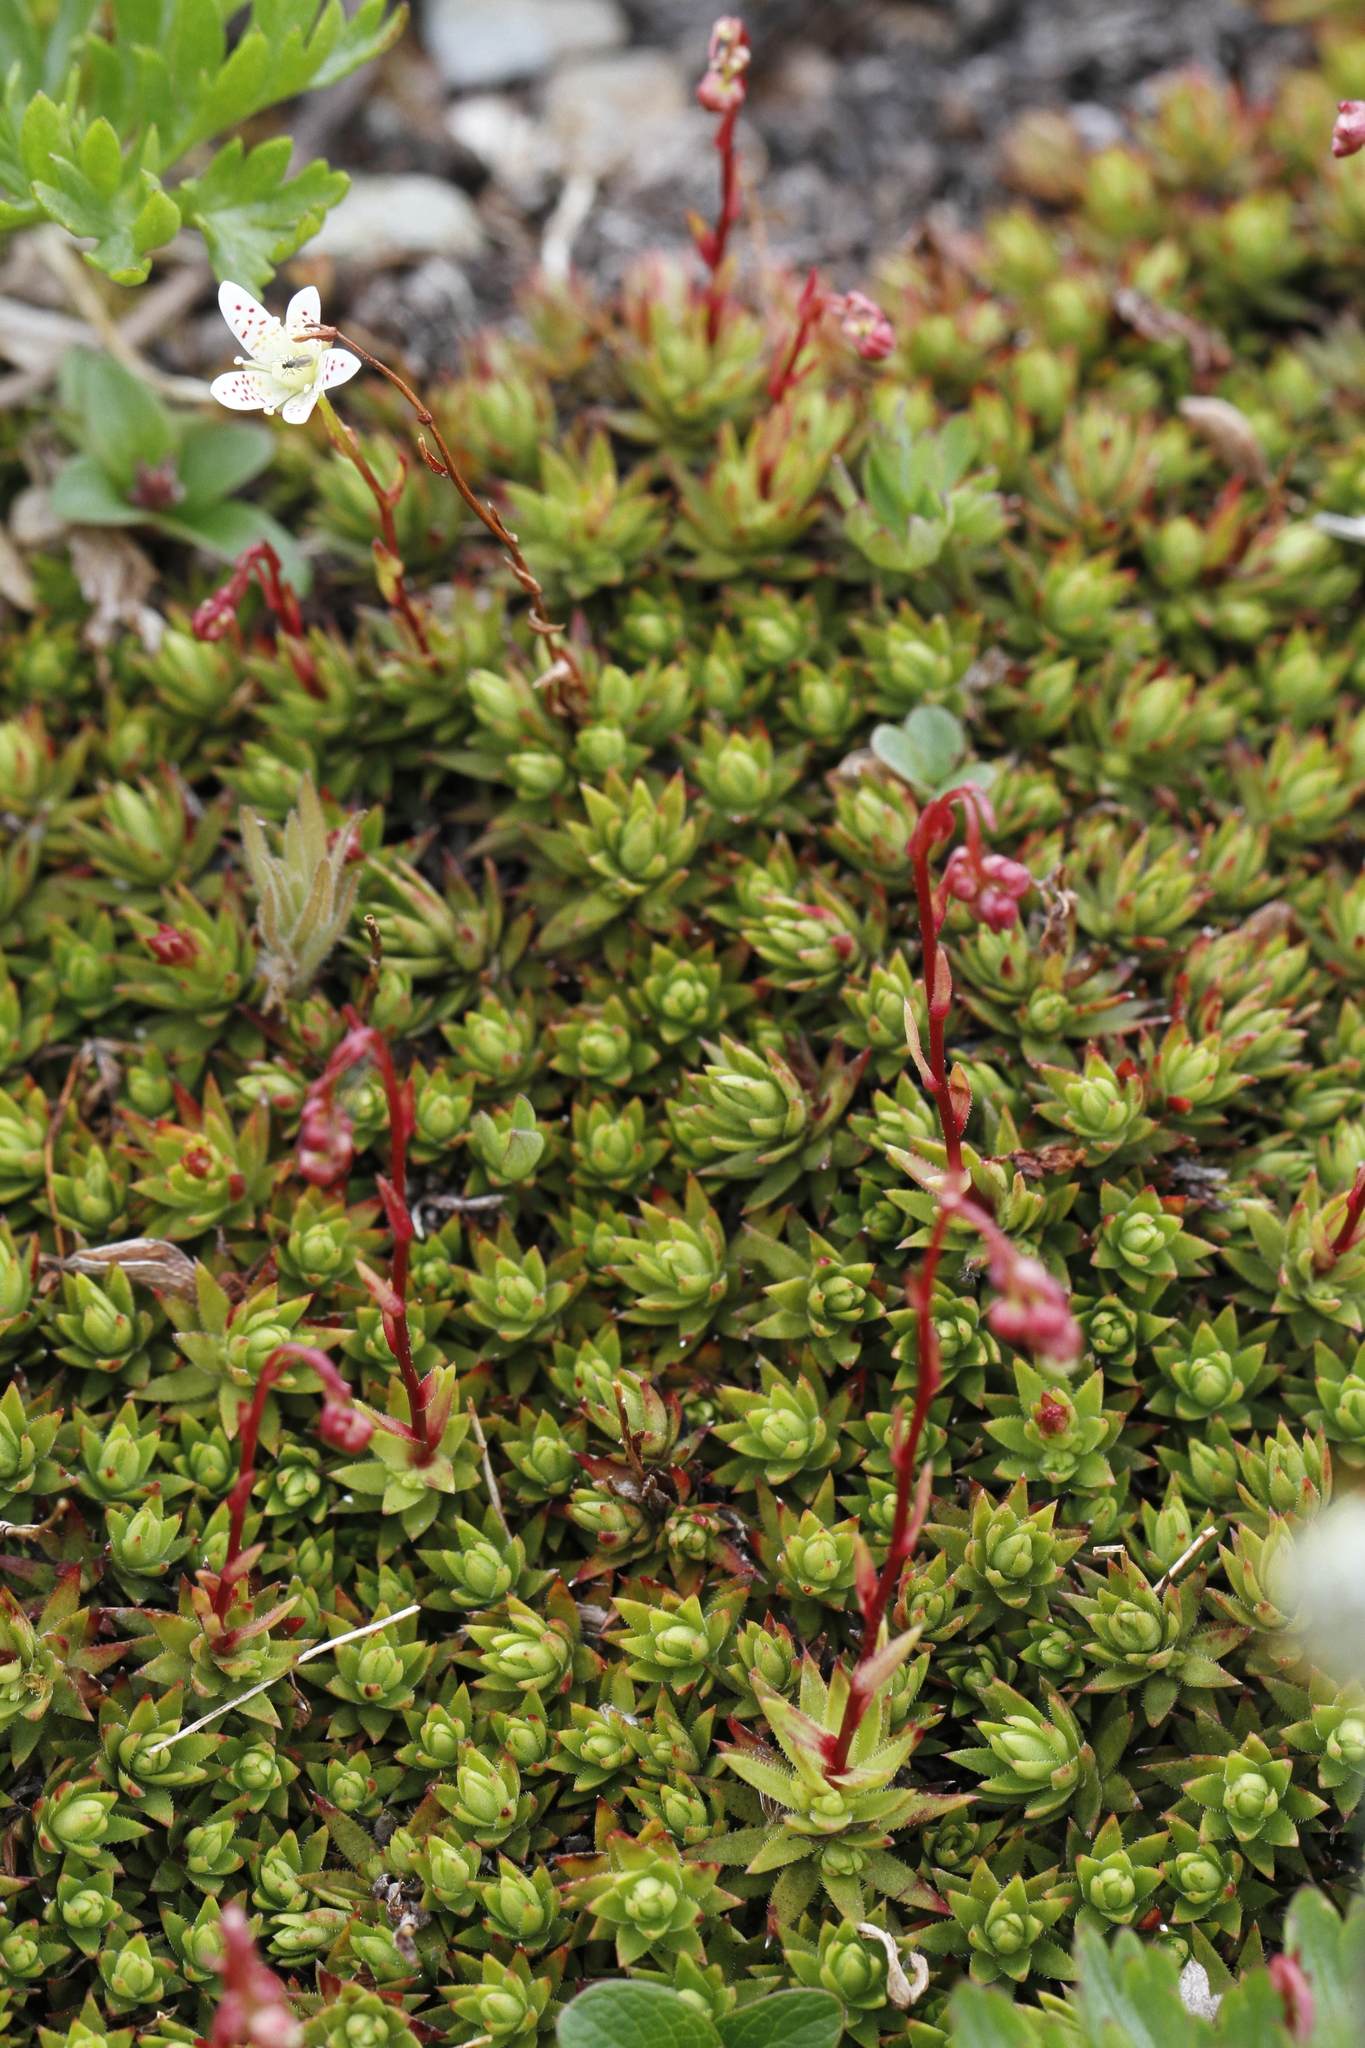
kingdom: Plantae
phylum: Tracheophyta
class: Magnoliopsida
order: Saxifragales
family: Saxifragaceae
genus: Saxifraga
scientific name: Saxifraga bronchialis
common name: Matted saxifrage
